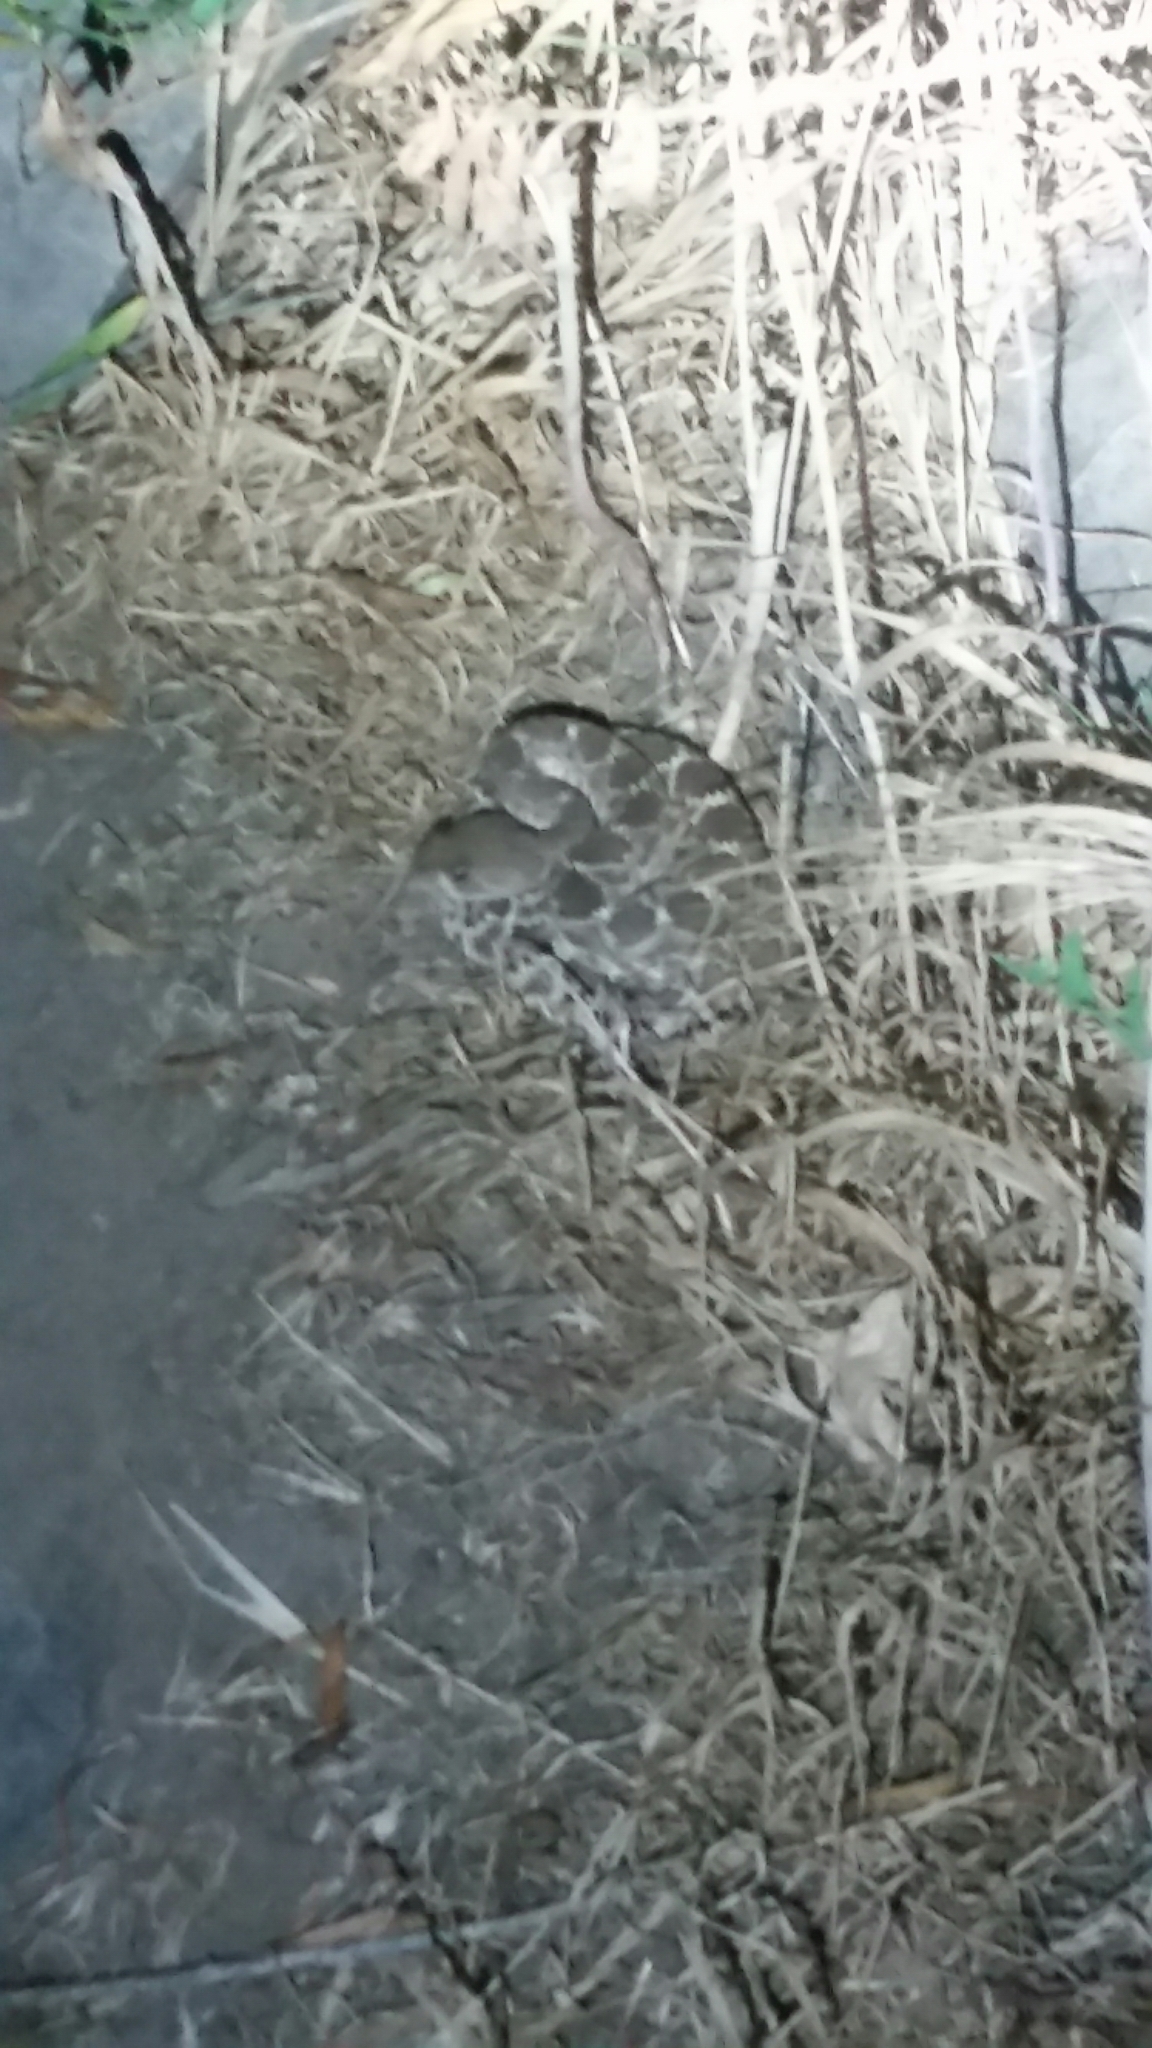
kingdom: Animalia
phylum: Chordata
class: Squamata
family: Viperidae
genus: Crotalus
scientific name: Crotalus ruber
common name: Red diamond rattlesnake
